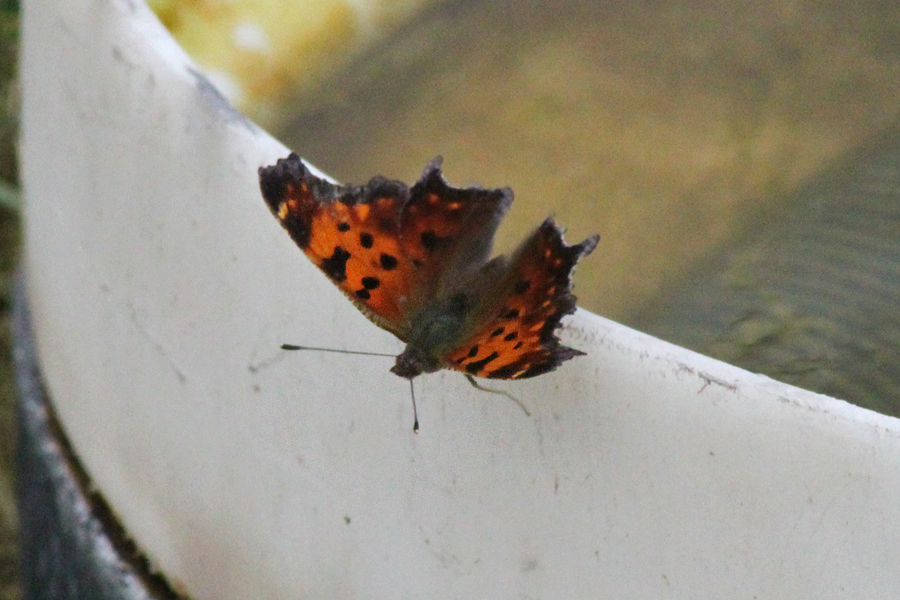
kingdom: Animalia
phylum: Arthropoda
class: Insecta
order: Lepidoptera
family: Nymphalidae
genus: Polygonia
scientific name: Polygonia comma
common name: Eastern comma
